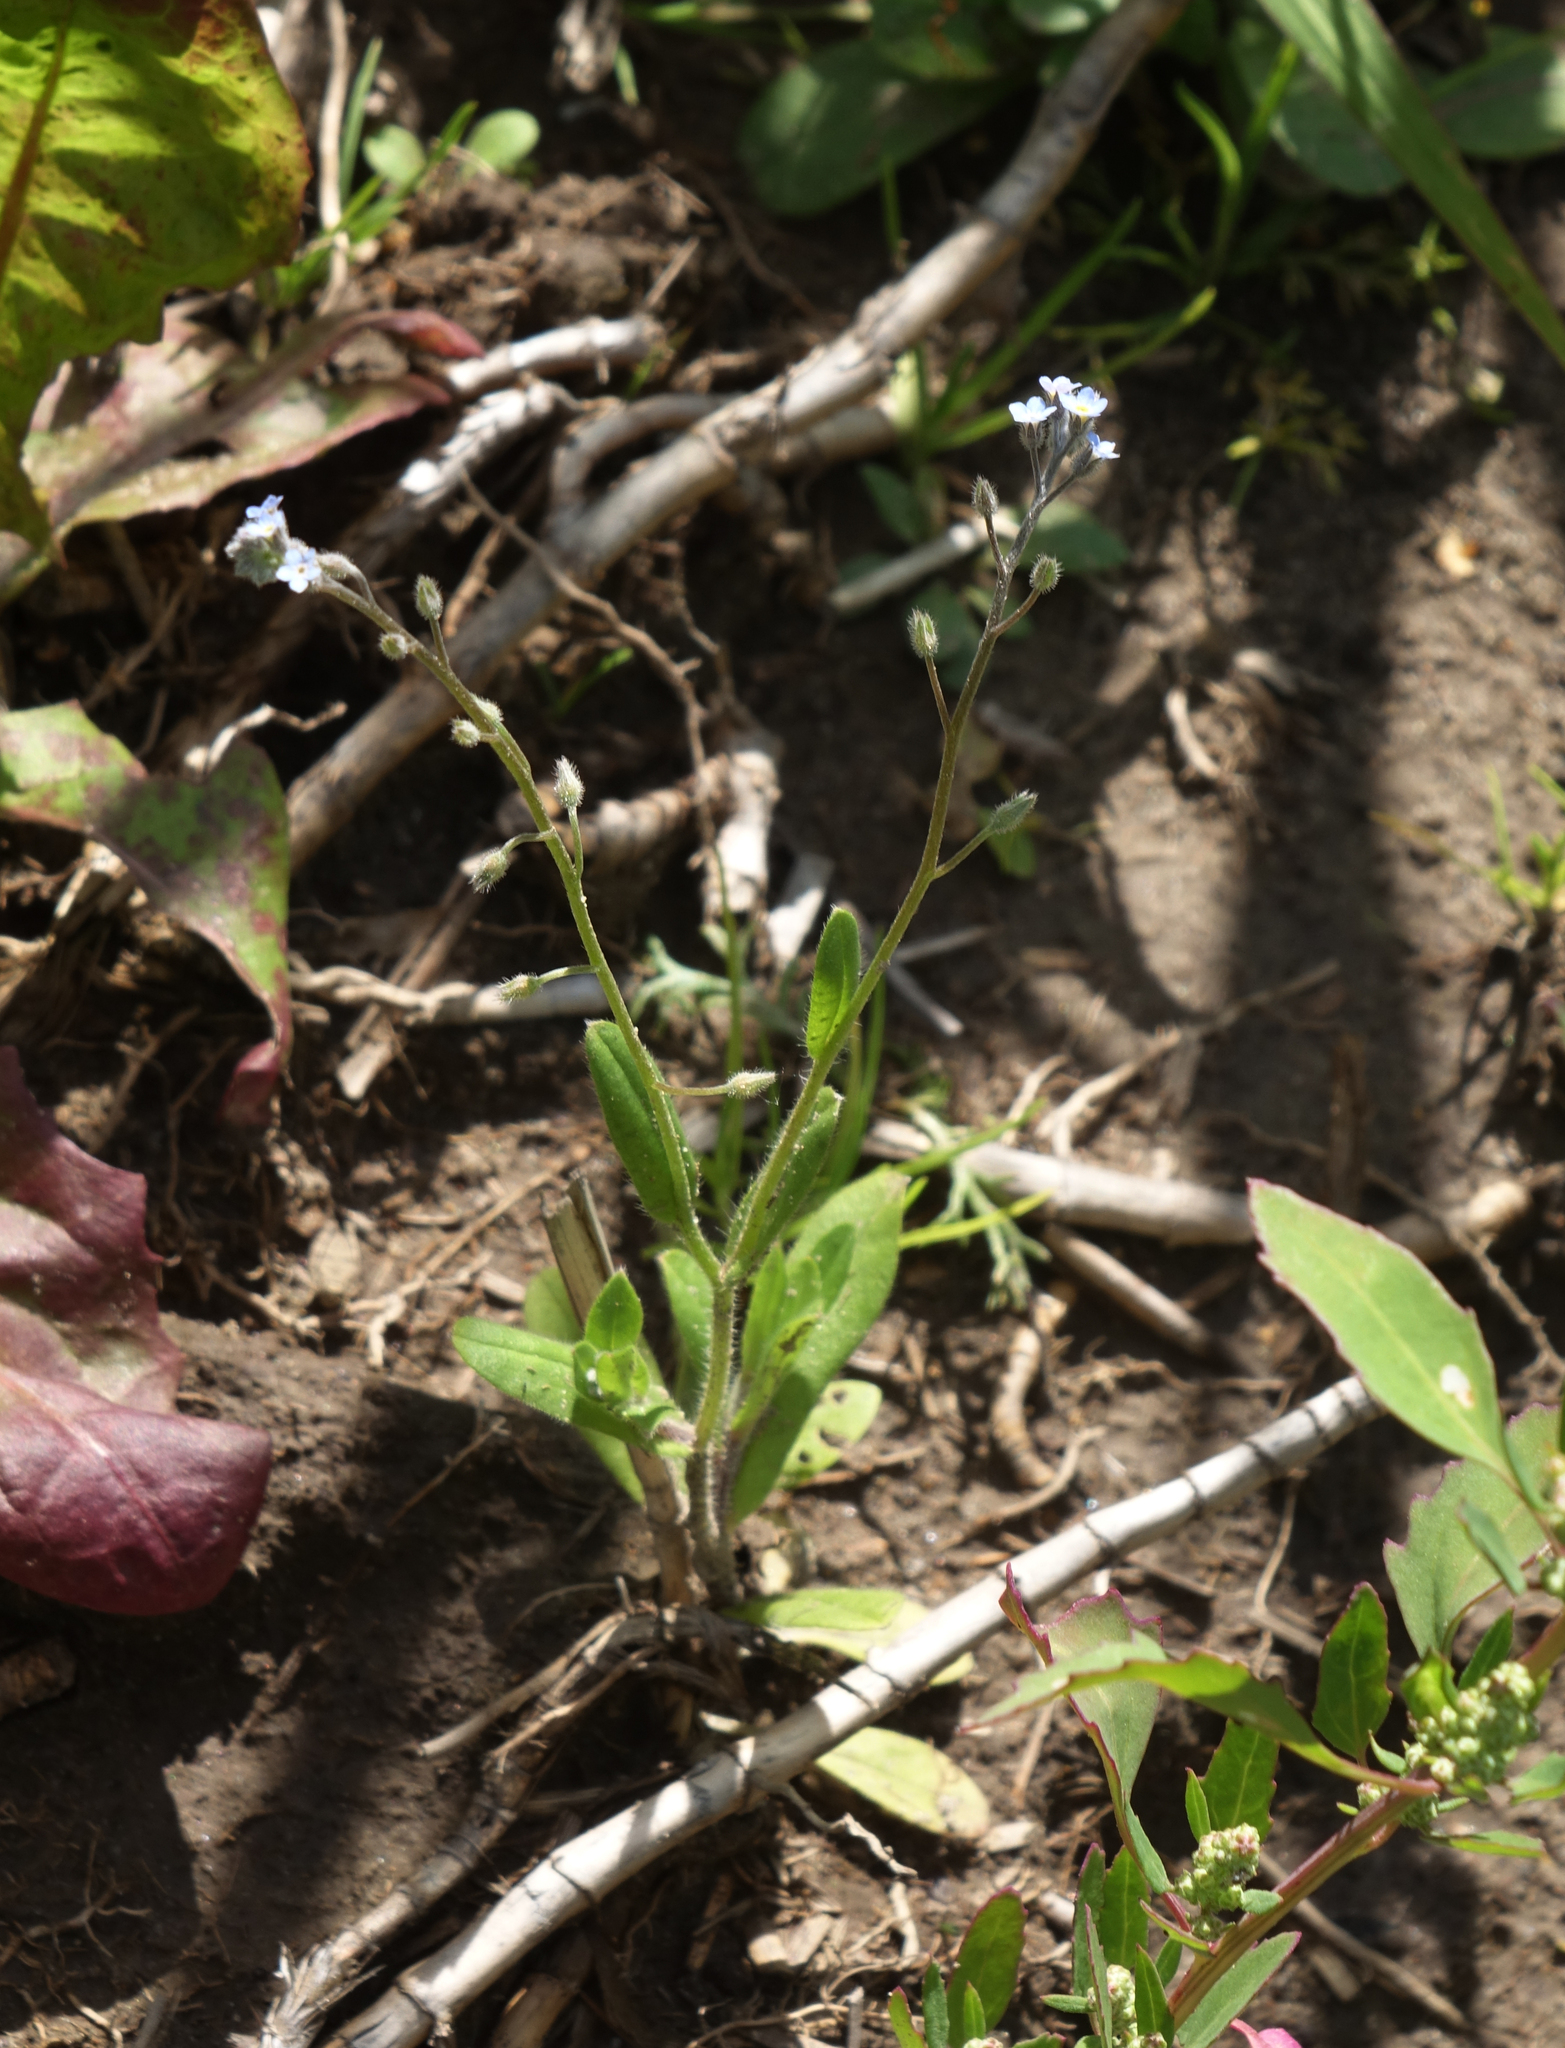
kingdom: Plantae
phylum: Tracheophyta
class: Magnoliopsida
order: Boraginales
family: Boraginaceae
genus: Myosotis
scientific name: Myosotis arvensis
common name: Field forget-me-not
